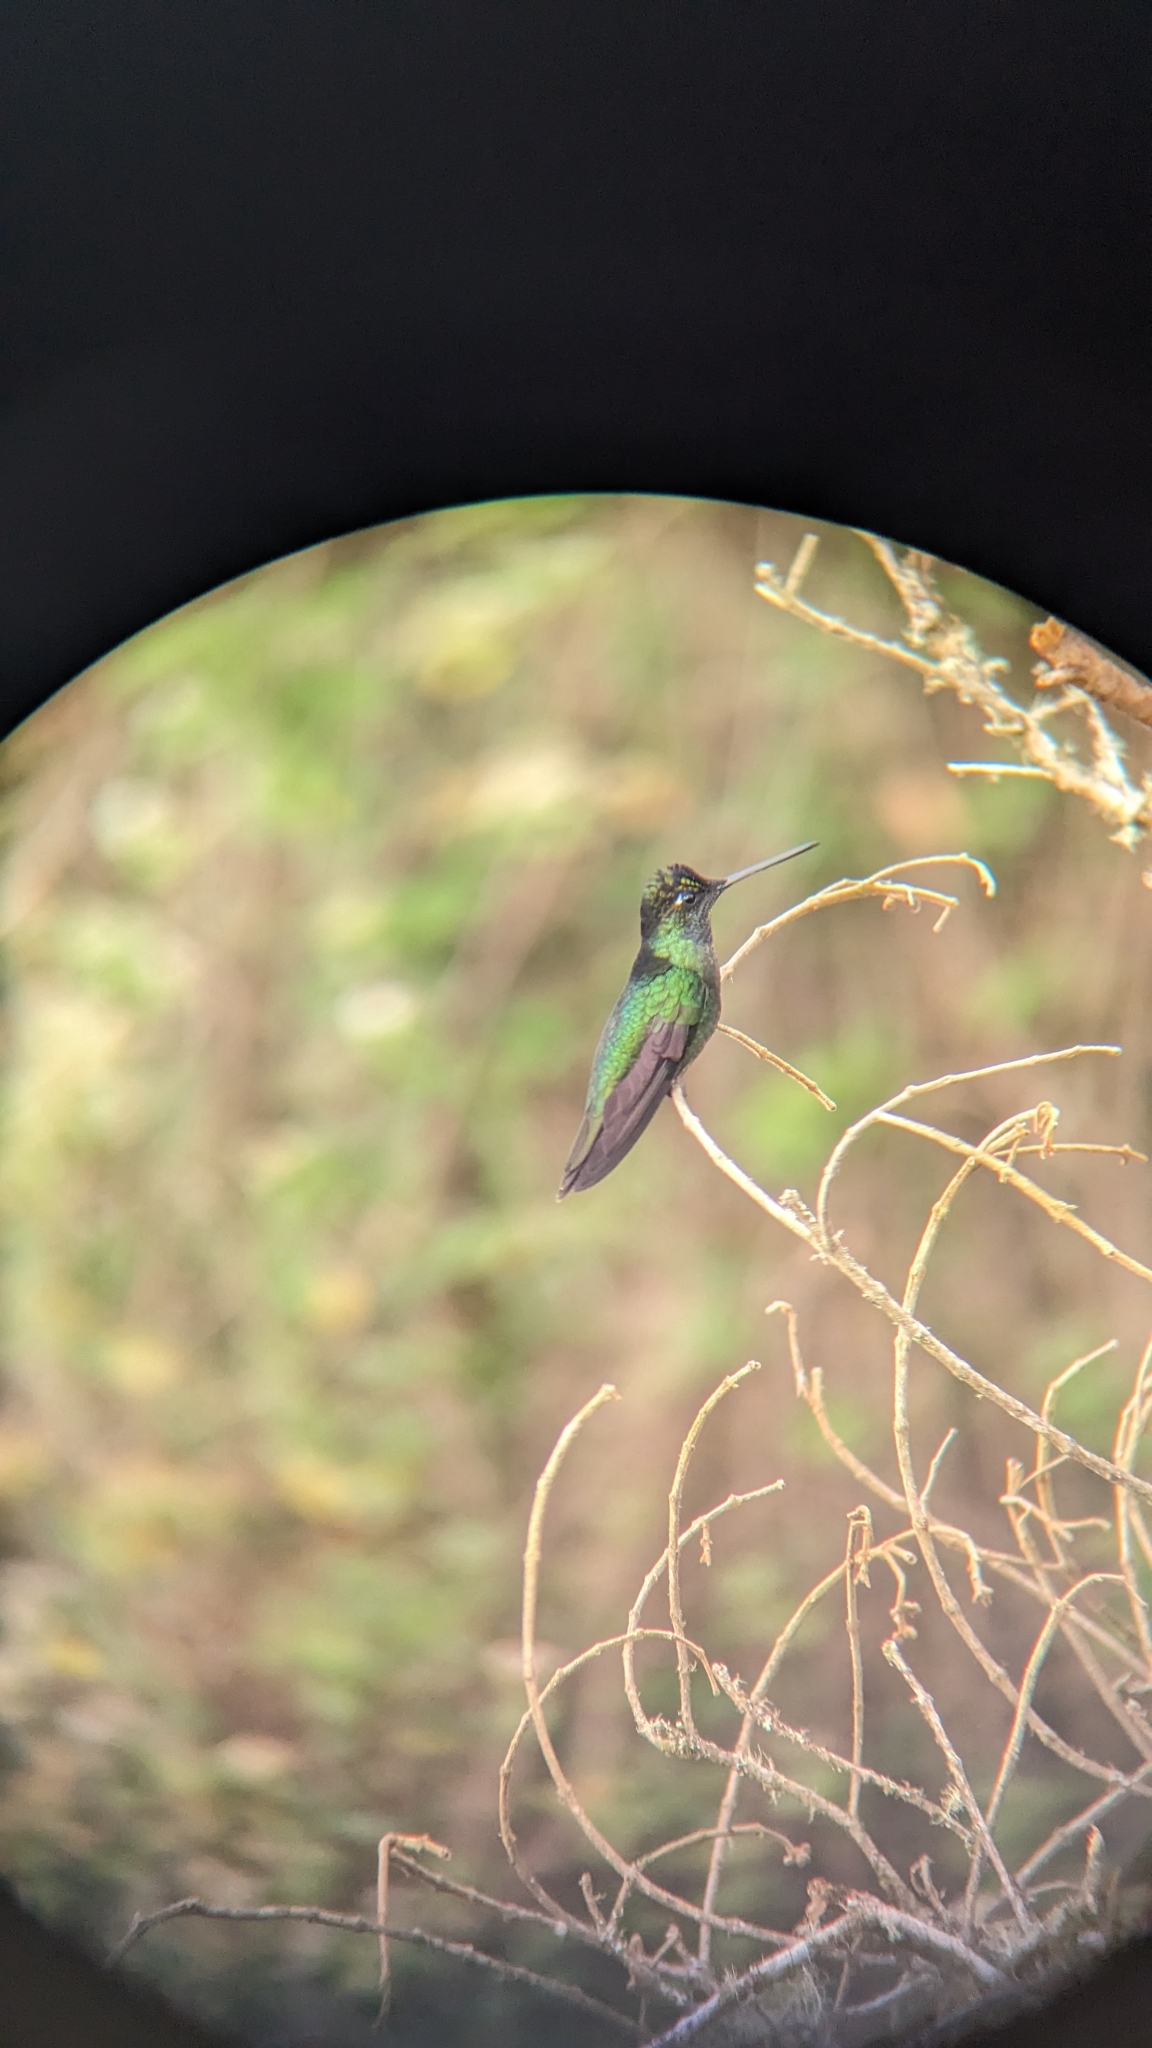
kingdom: Animalia
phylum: Chordata
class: Aves
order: Apodiformes
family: Trochilidae
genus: Eugenes
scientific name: Eugenes spectabilis
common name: Talamanca hummingbird
